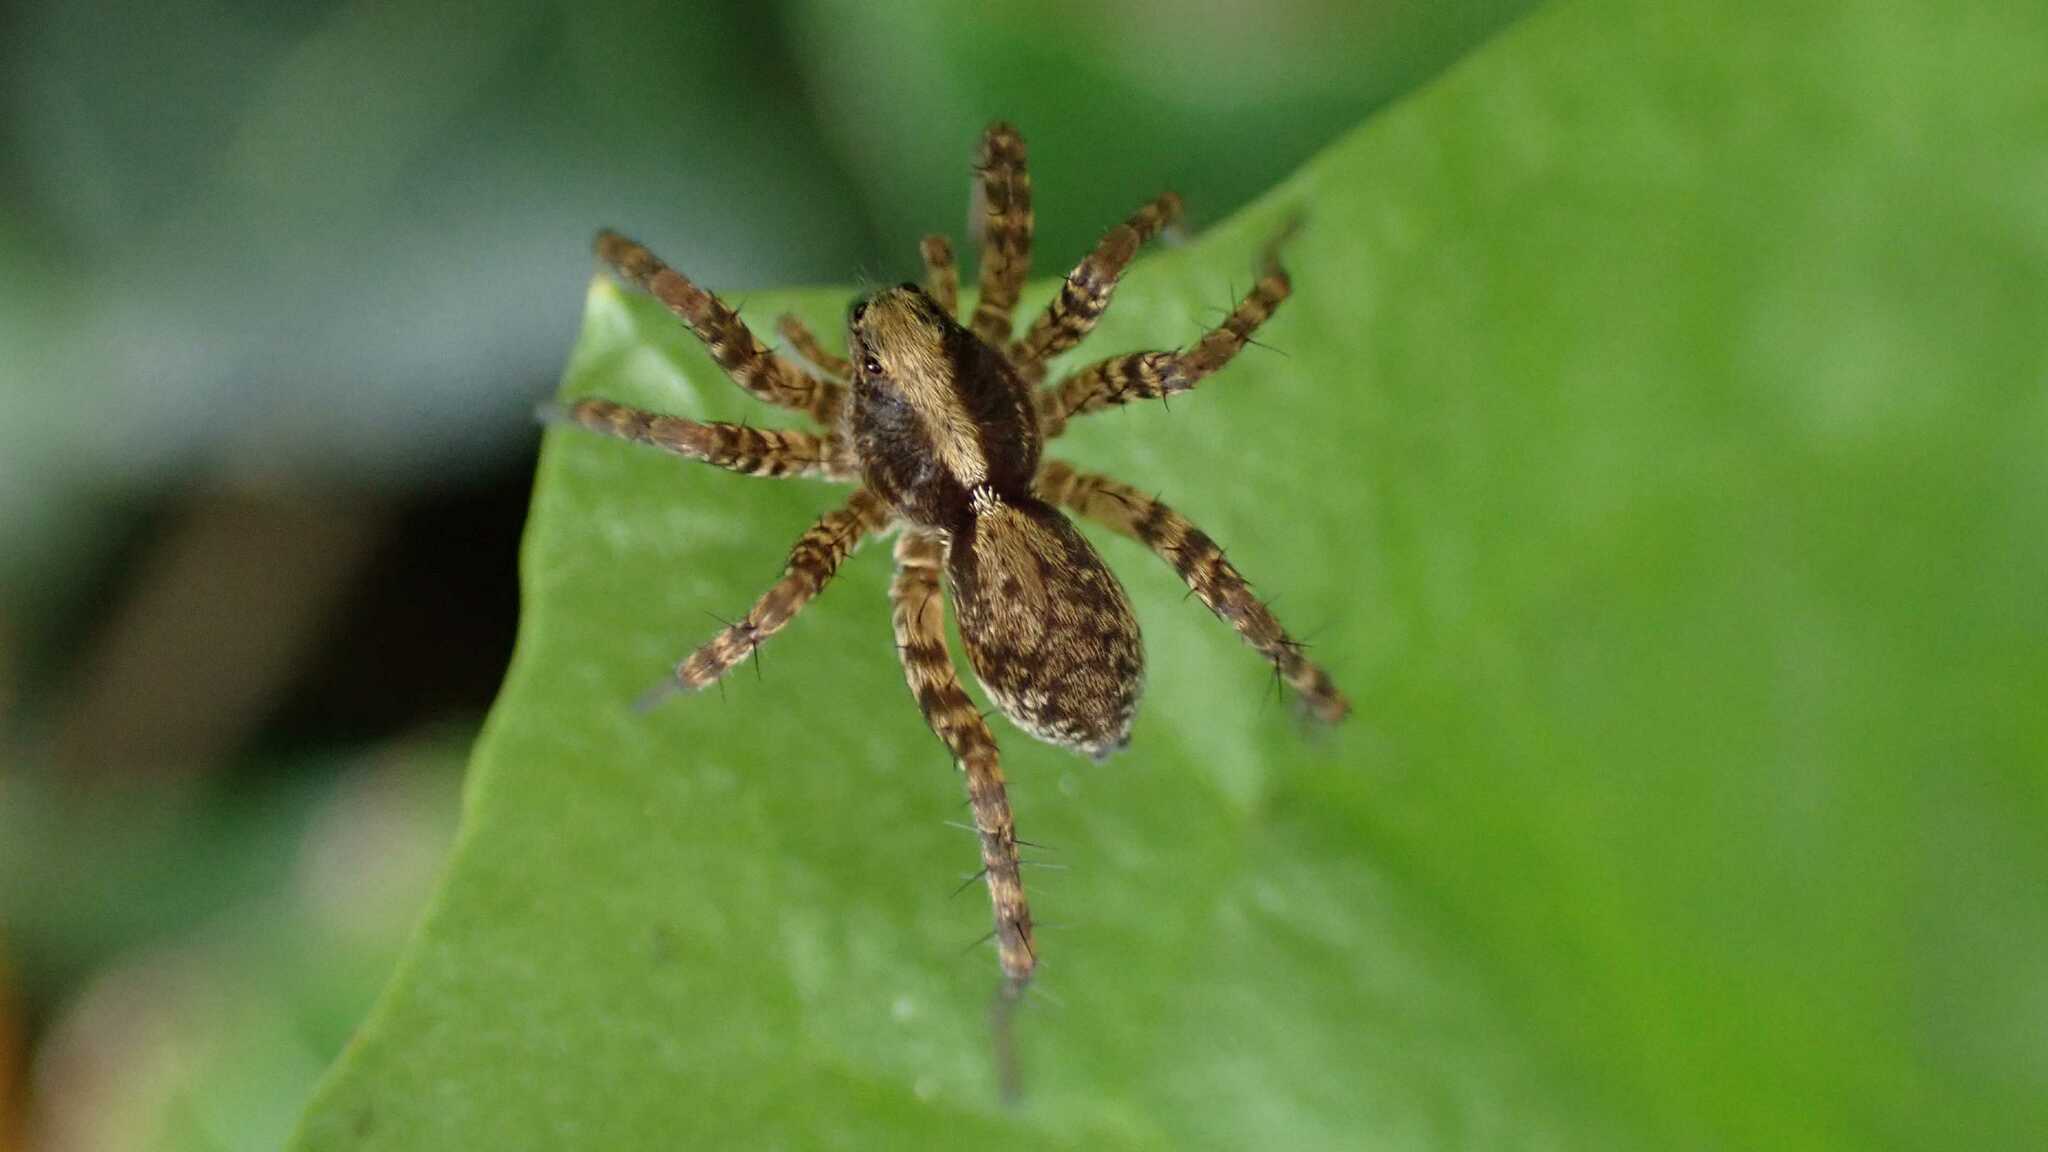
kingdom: Animalia
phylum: Arthropoda
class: Arachnida
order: Araneae
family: Lycosidae
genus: Pardosa
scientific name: Pardosa
